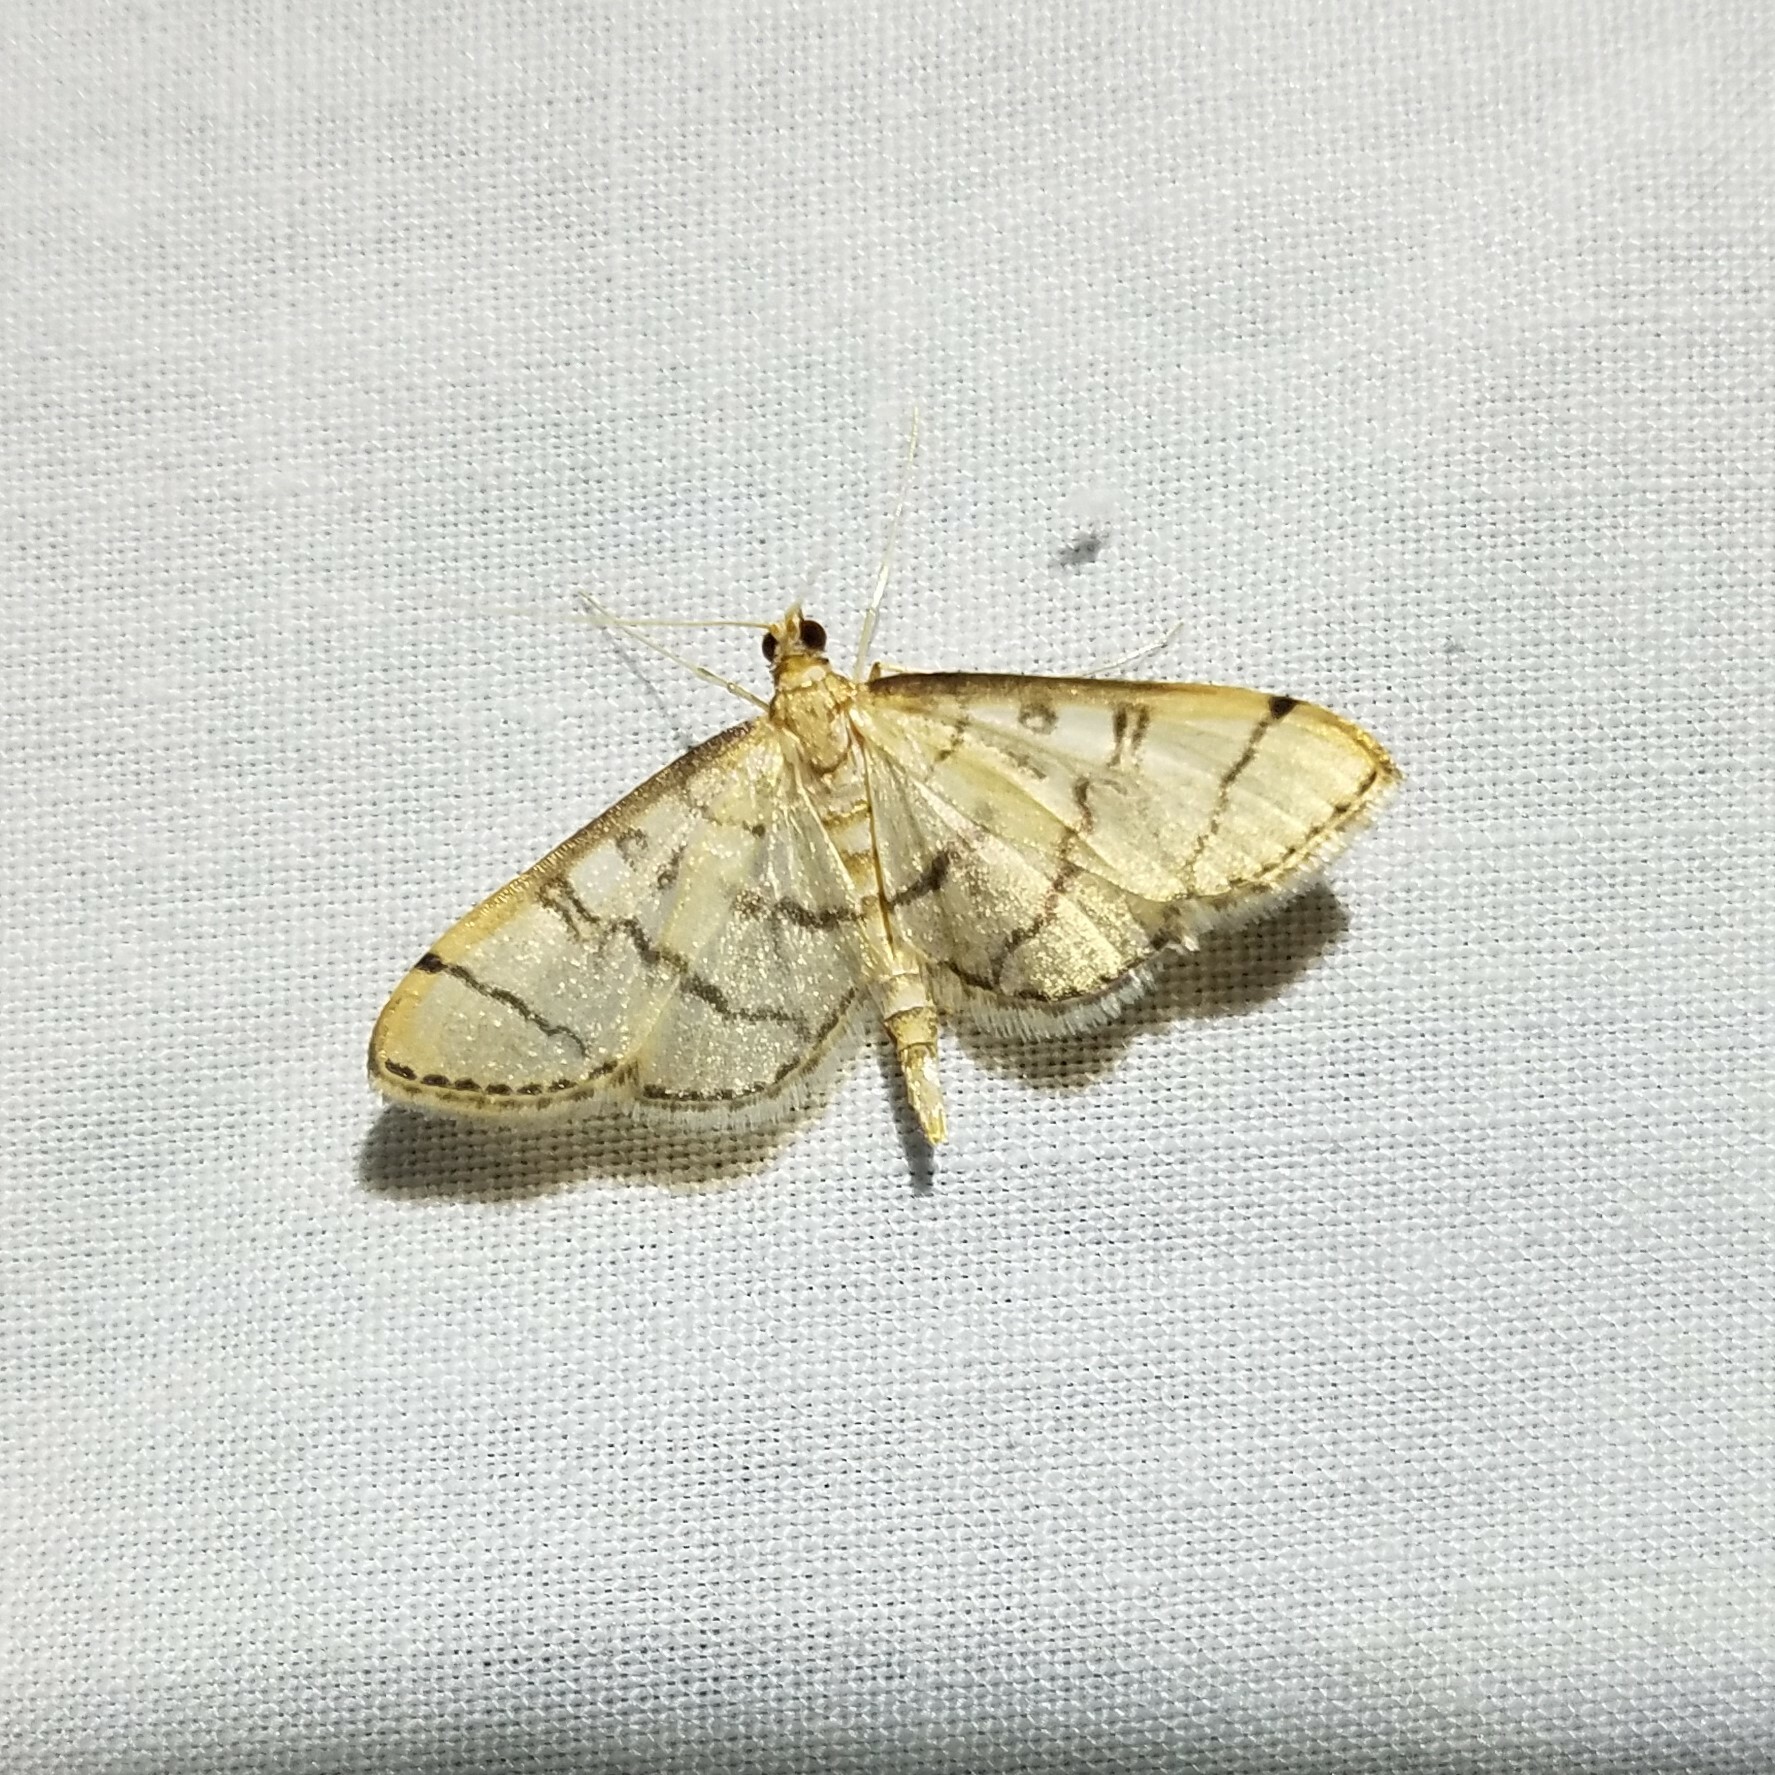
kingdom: Animalia
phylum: Arthropoda
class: Insecta
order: Lepidoptera
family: Crambidae
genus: Lamprosema
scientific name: Lamprosema Blepharomastix ranalis
